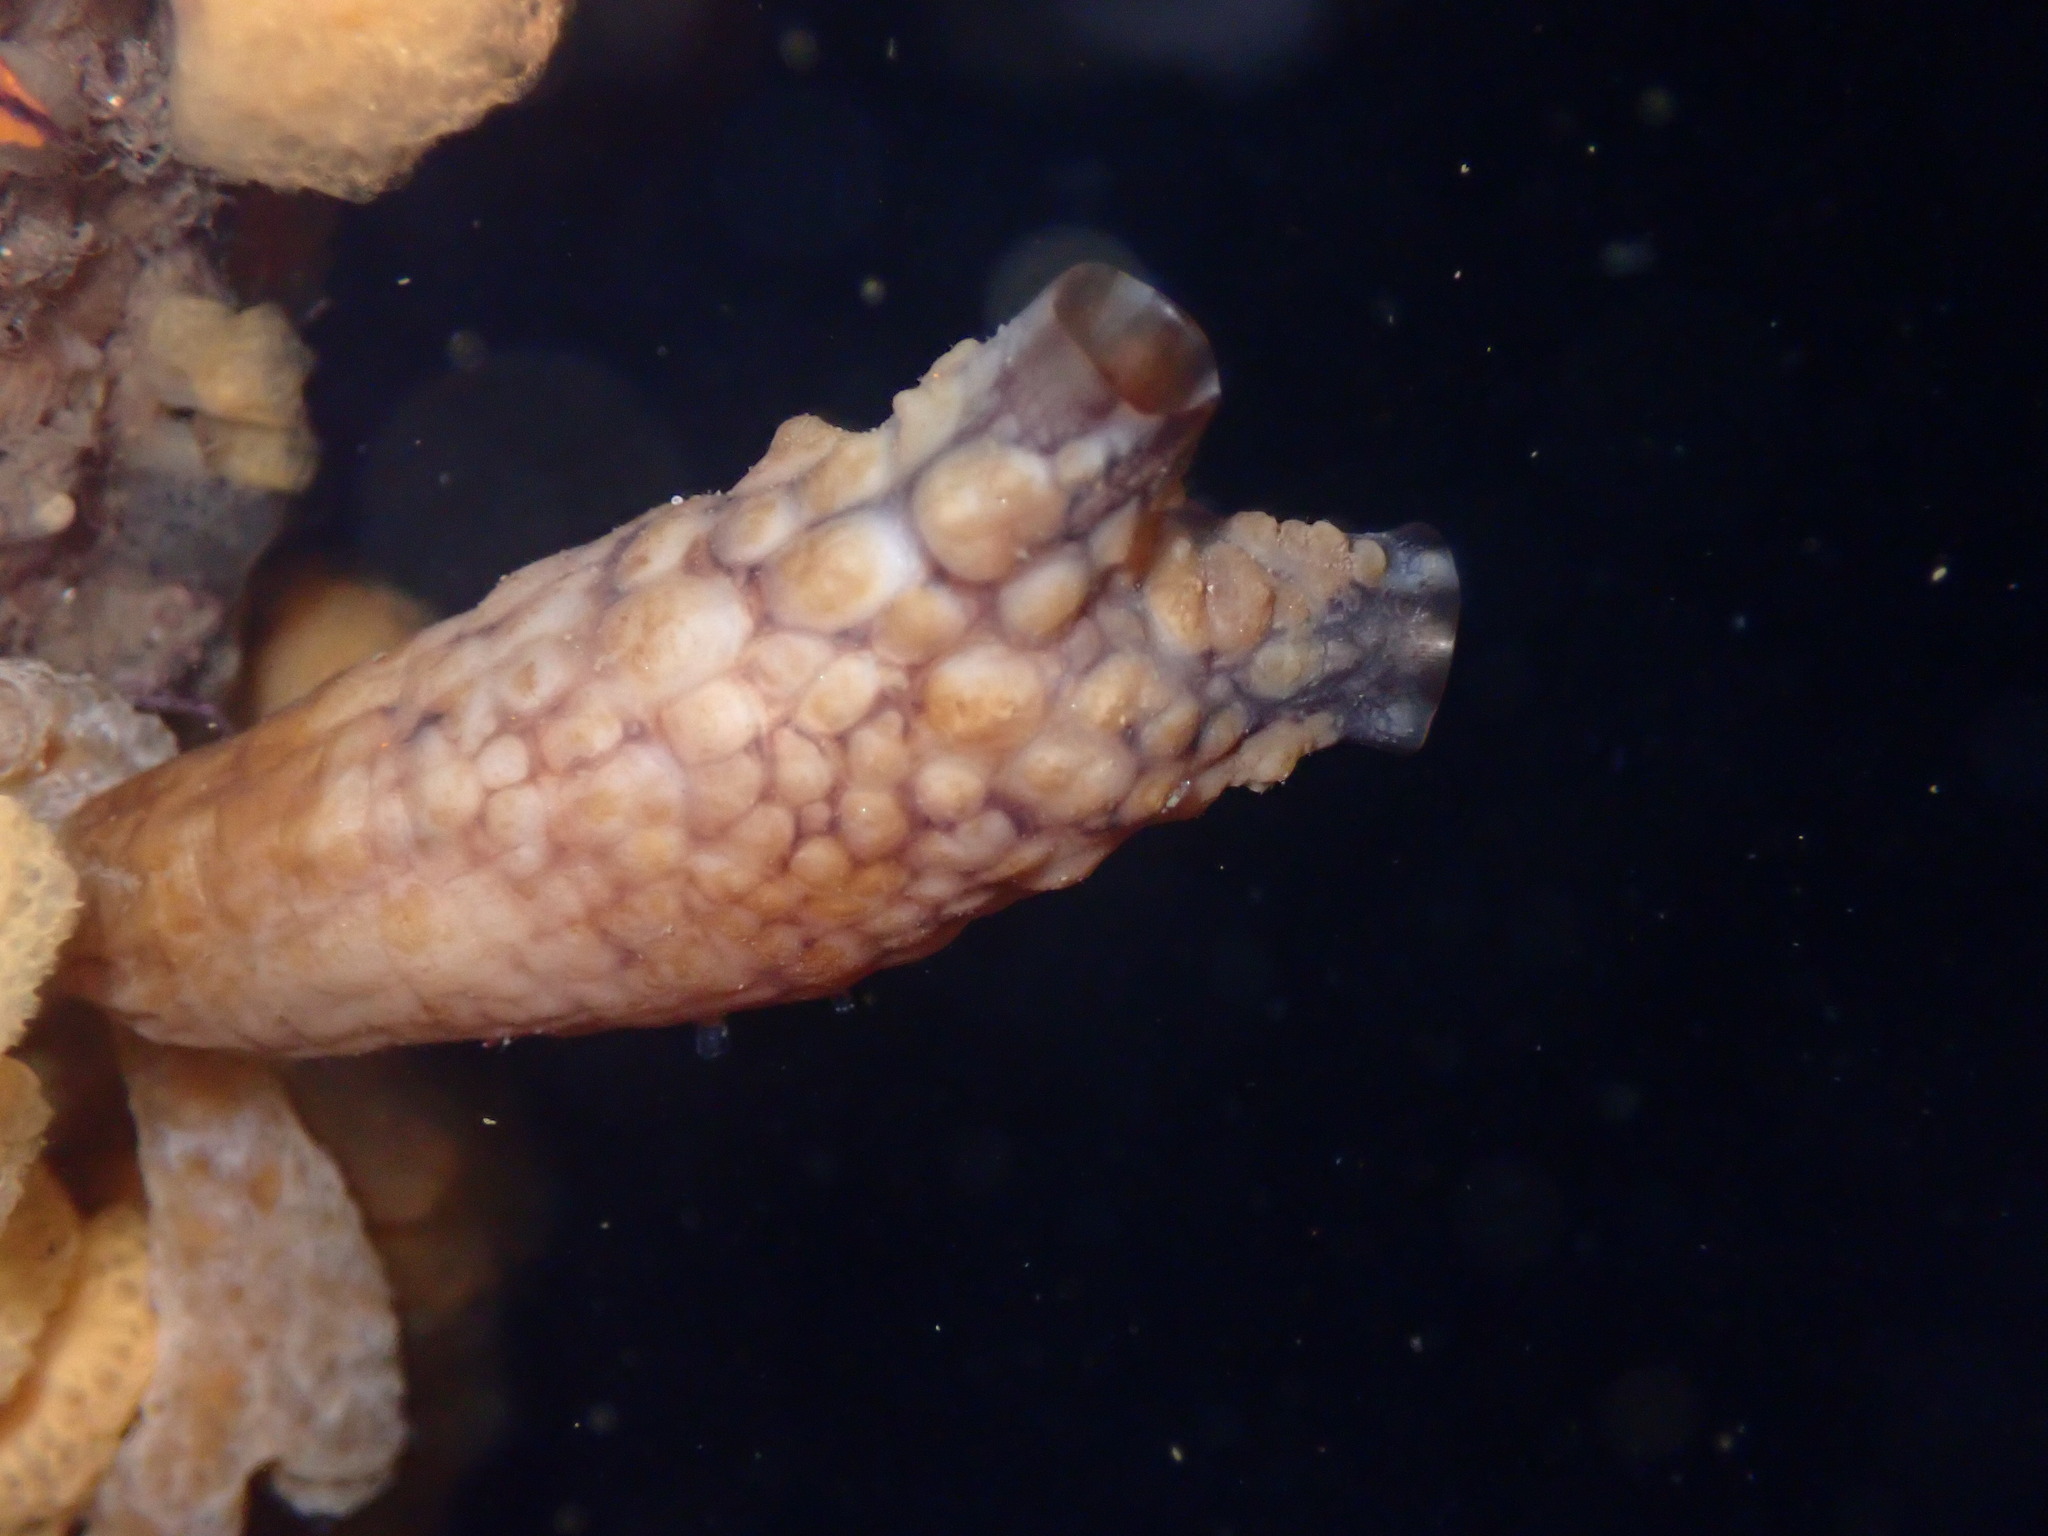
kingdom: Animalia
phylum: Chordata
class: Ascidiacea
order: Stolidobranchia
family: Styelidae
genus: Styela
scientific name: Styela clava
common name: Leathery sea squirt
